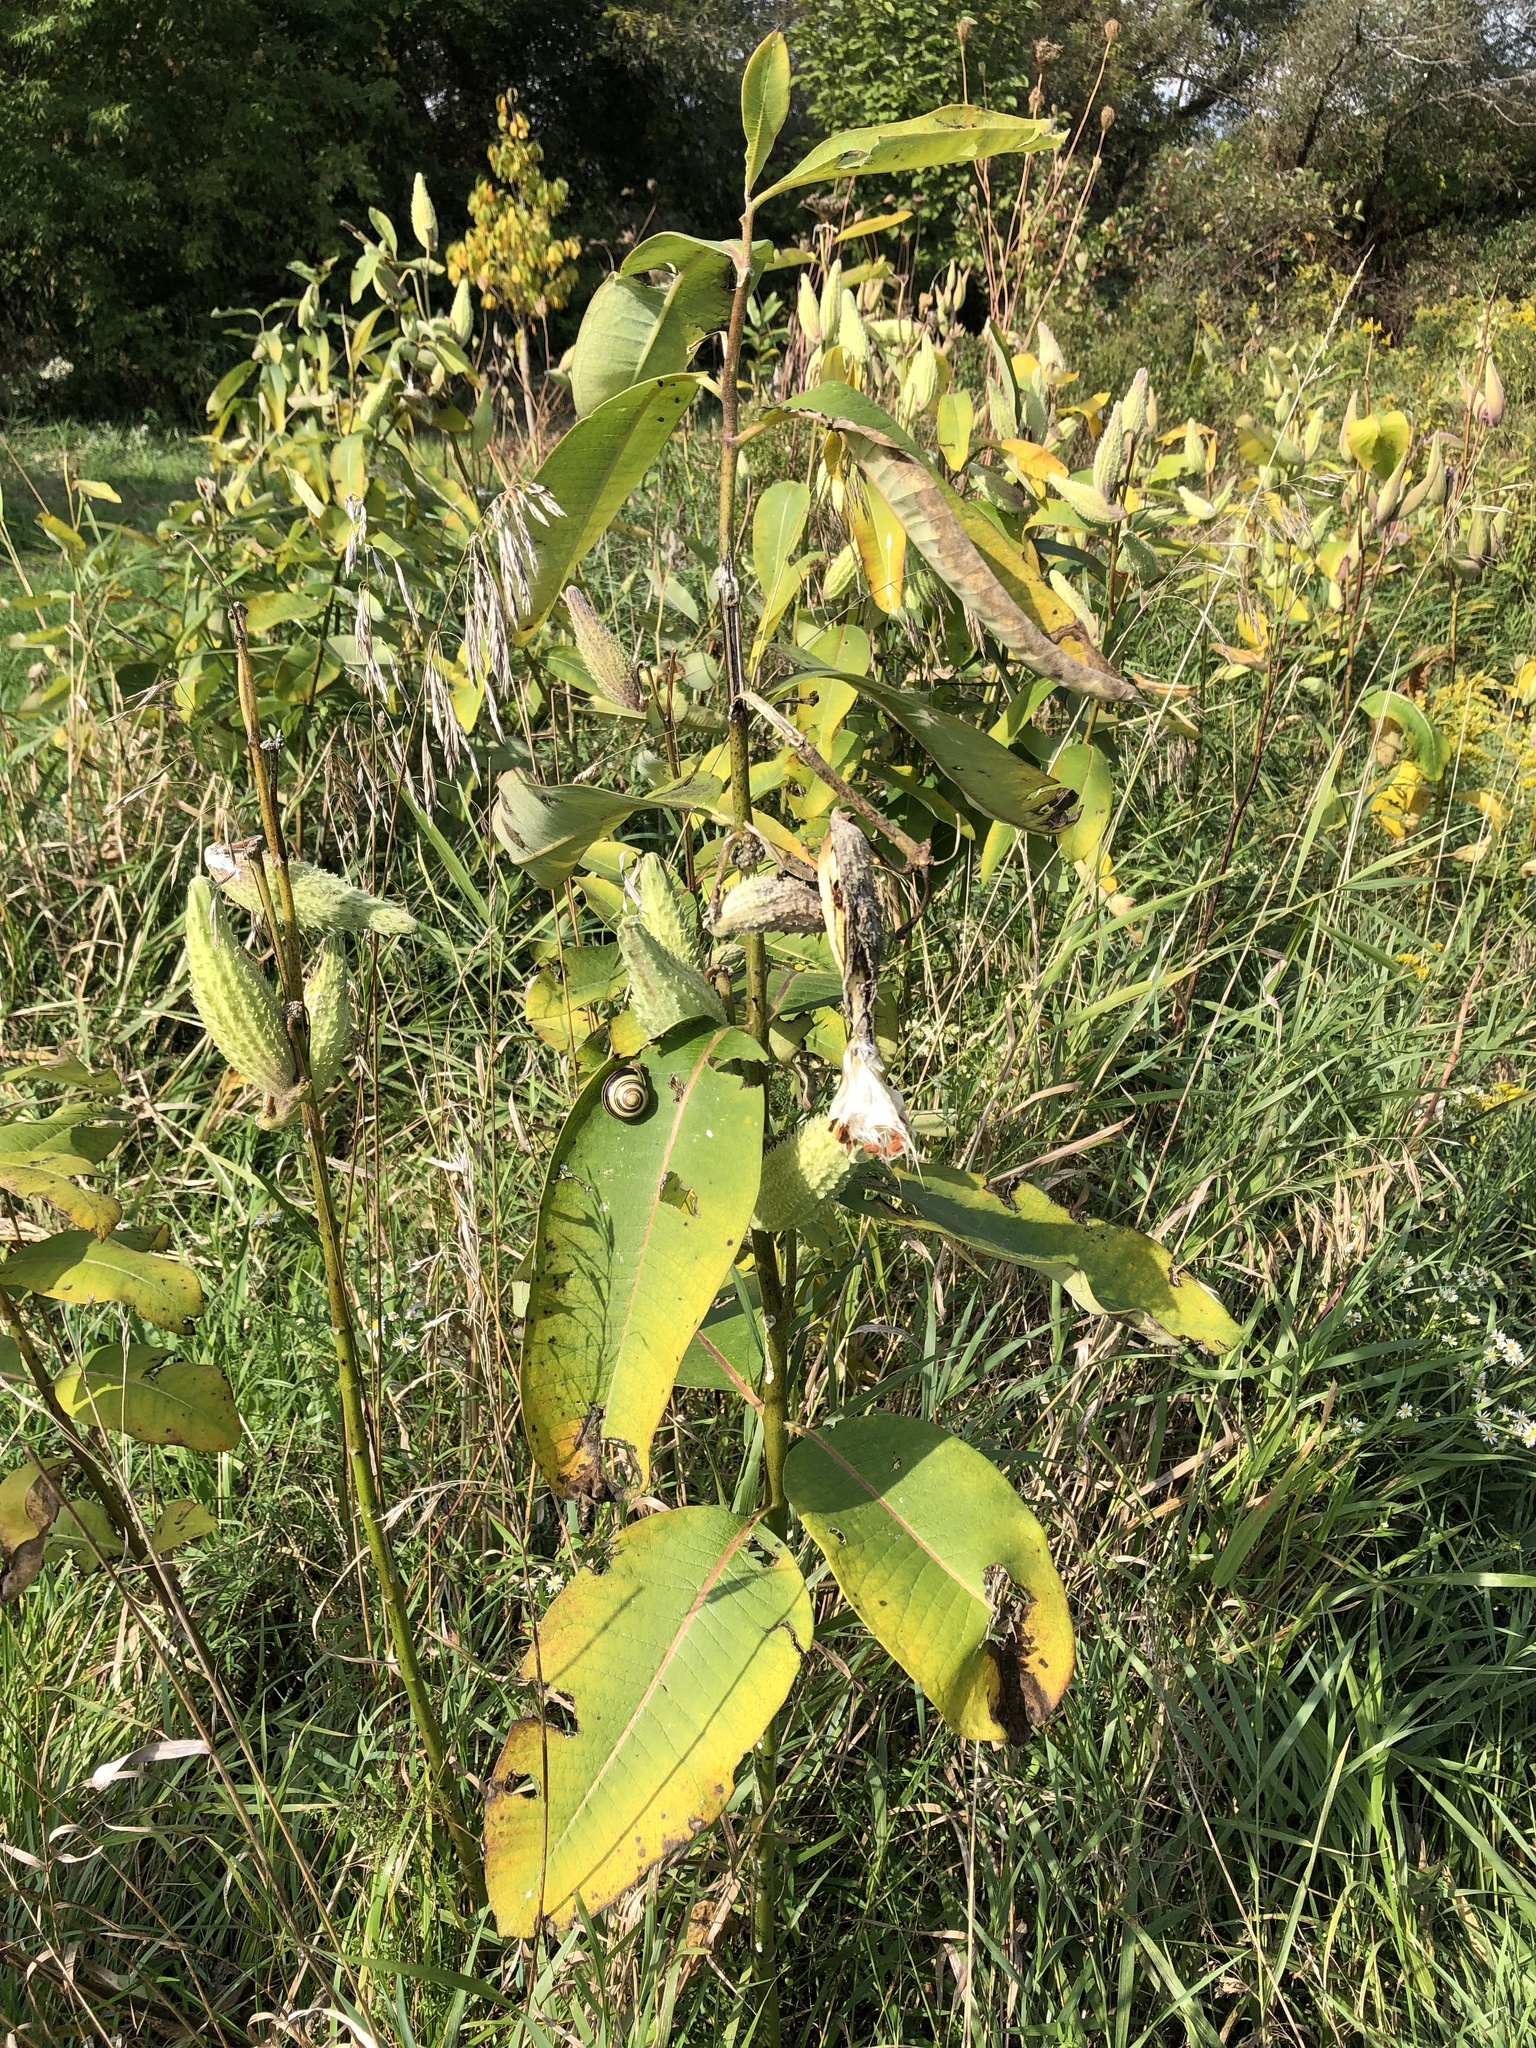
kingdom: Plantae
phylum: Tracheophyta
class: Magnoliopsida
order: Gentianales
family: Apocynaceae
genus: Asclepias
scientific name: Asclepias syriaca
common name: Common milkweed
